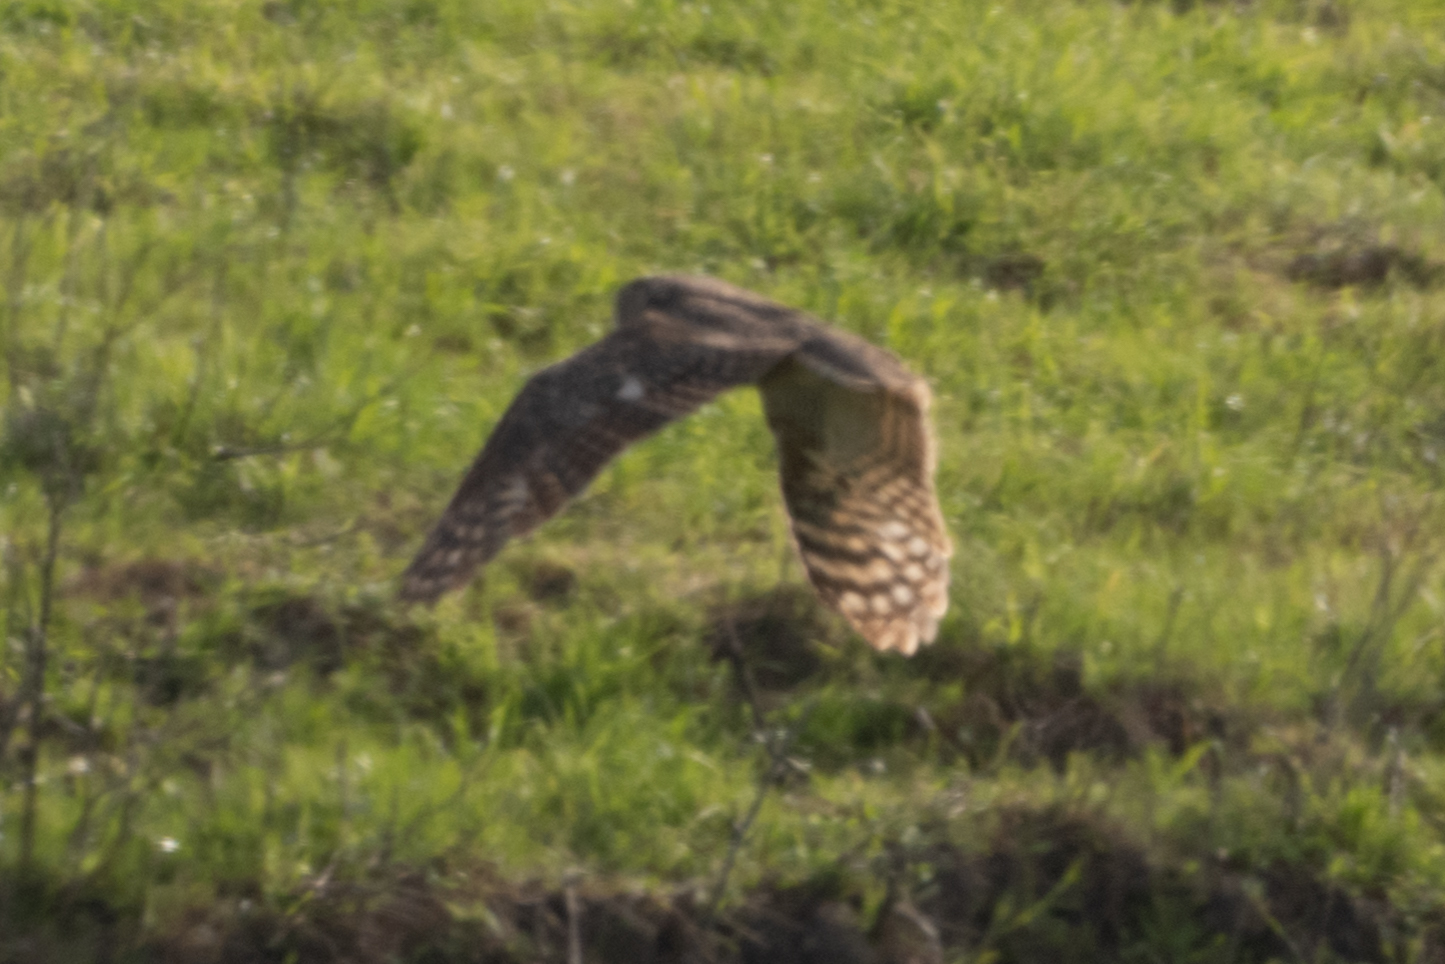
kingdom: Animalia
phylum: Chordata
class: Aves
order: Strigiformes
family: Strigidae
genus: Bubo
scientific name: Bubo virginianus
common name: Great horned owl
